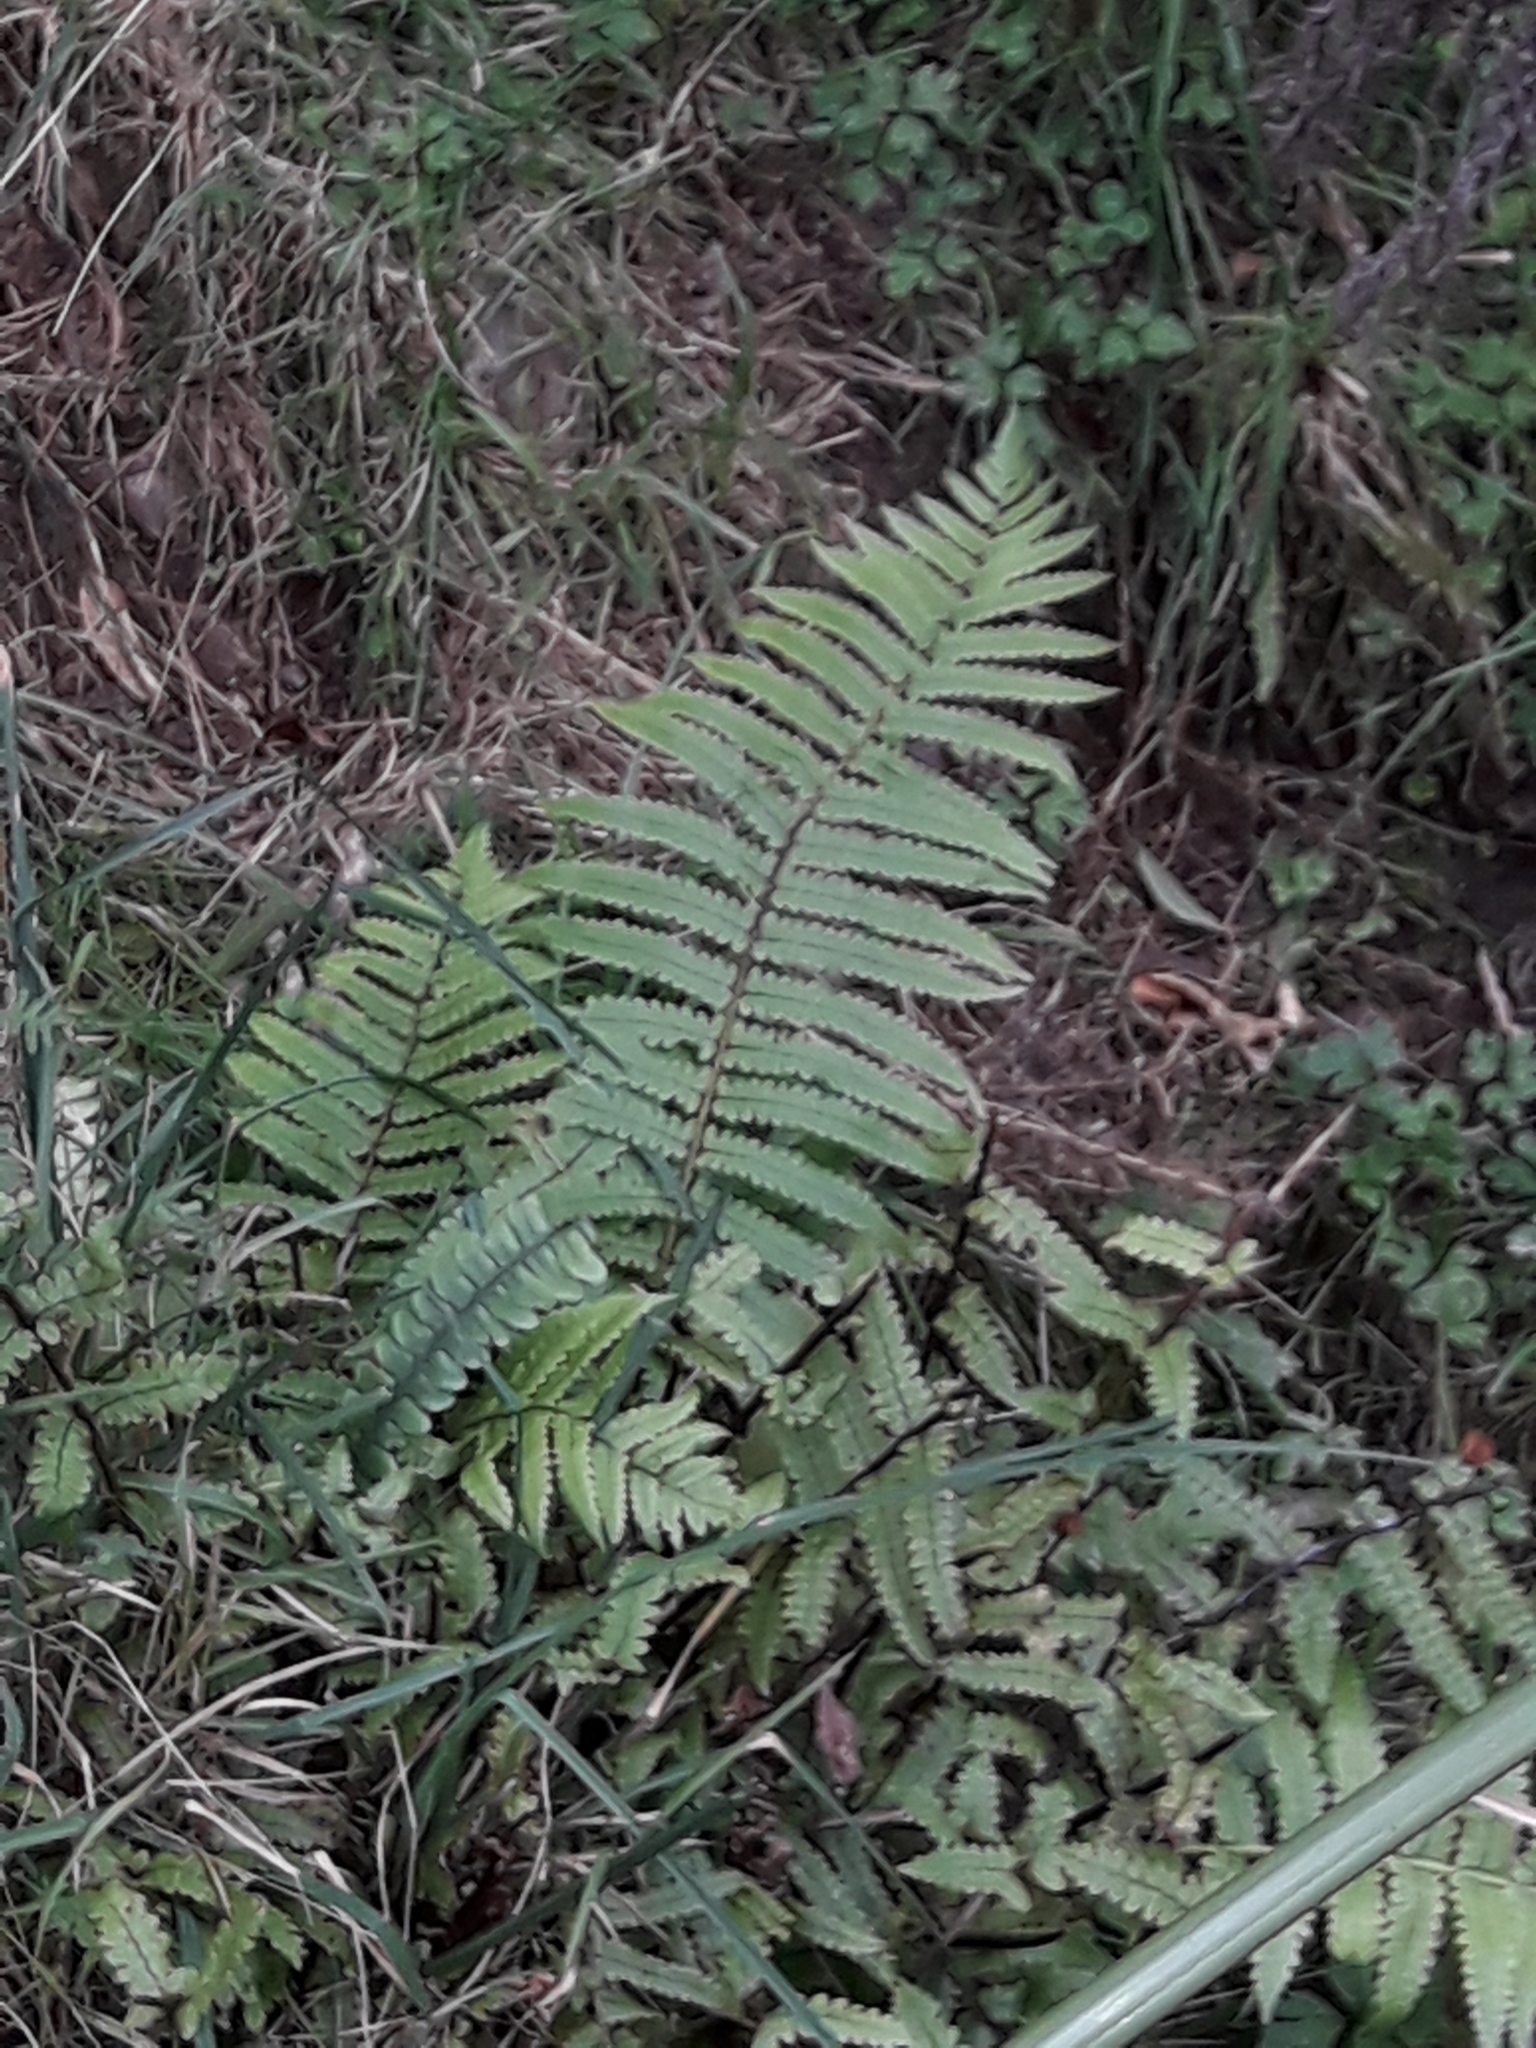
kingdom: Plantae
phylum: Tracheophyta
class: Polypodiopsida
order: Polypodiales
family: Thelypteridaceae
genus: Pakau
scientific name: Pakau pennigera
